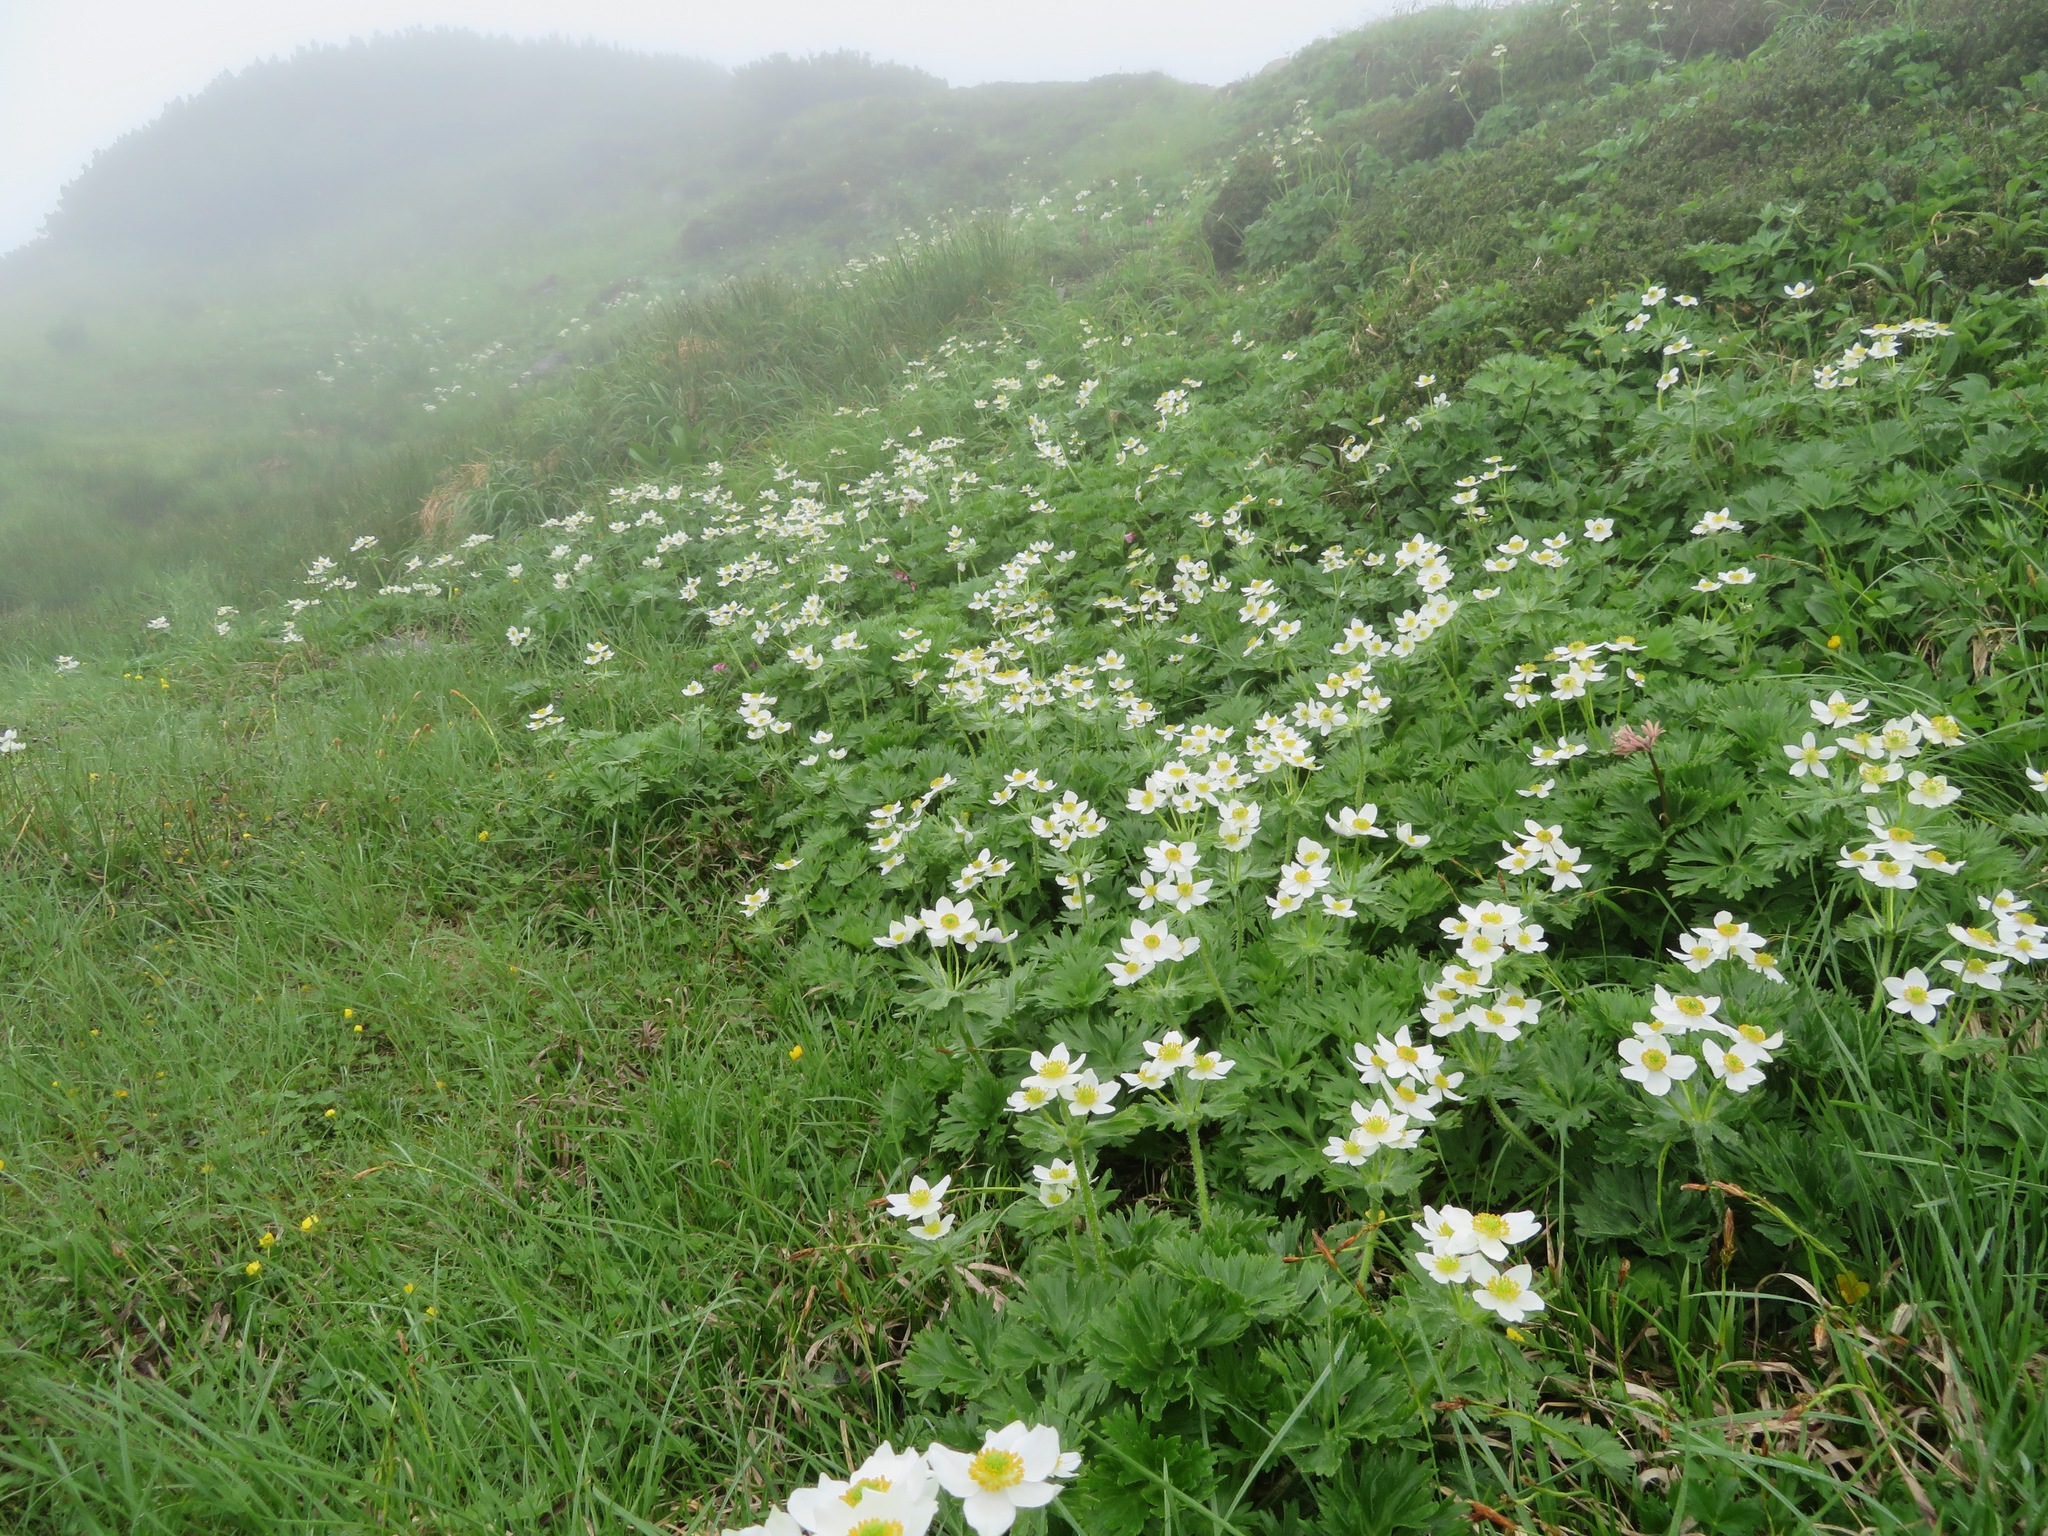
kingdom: Plantae
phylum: Tracheophyta
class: Magnoliopsida
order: Ranunculales
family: Ranunculaceae
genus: Anemonastrum
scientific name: Anemonastrum narcissiflorum
